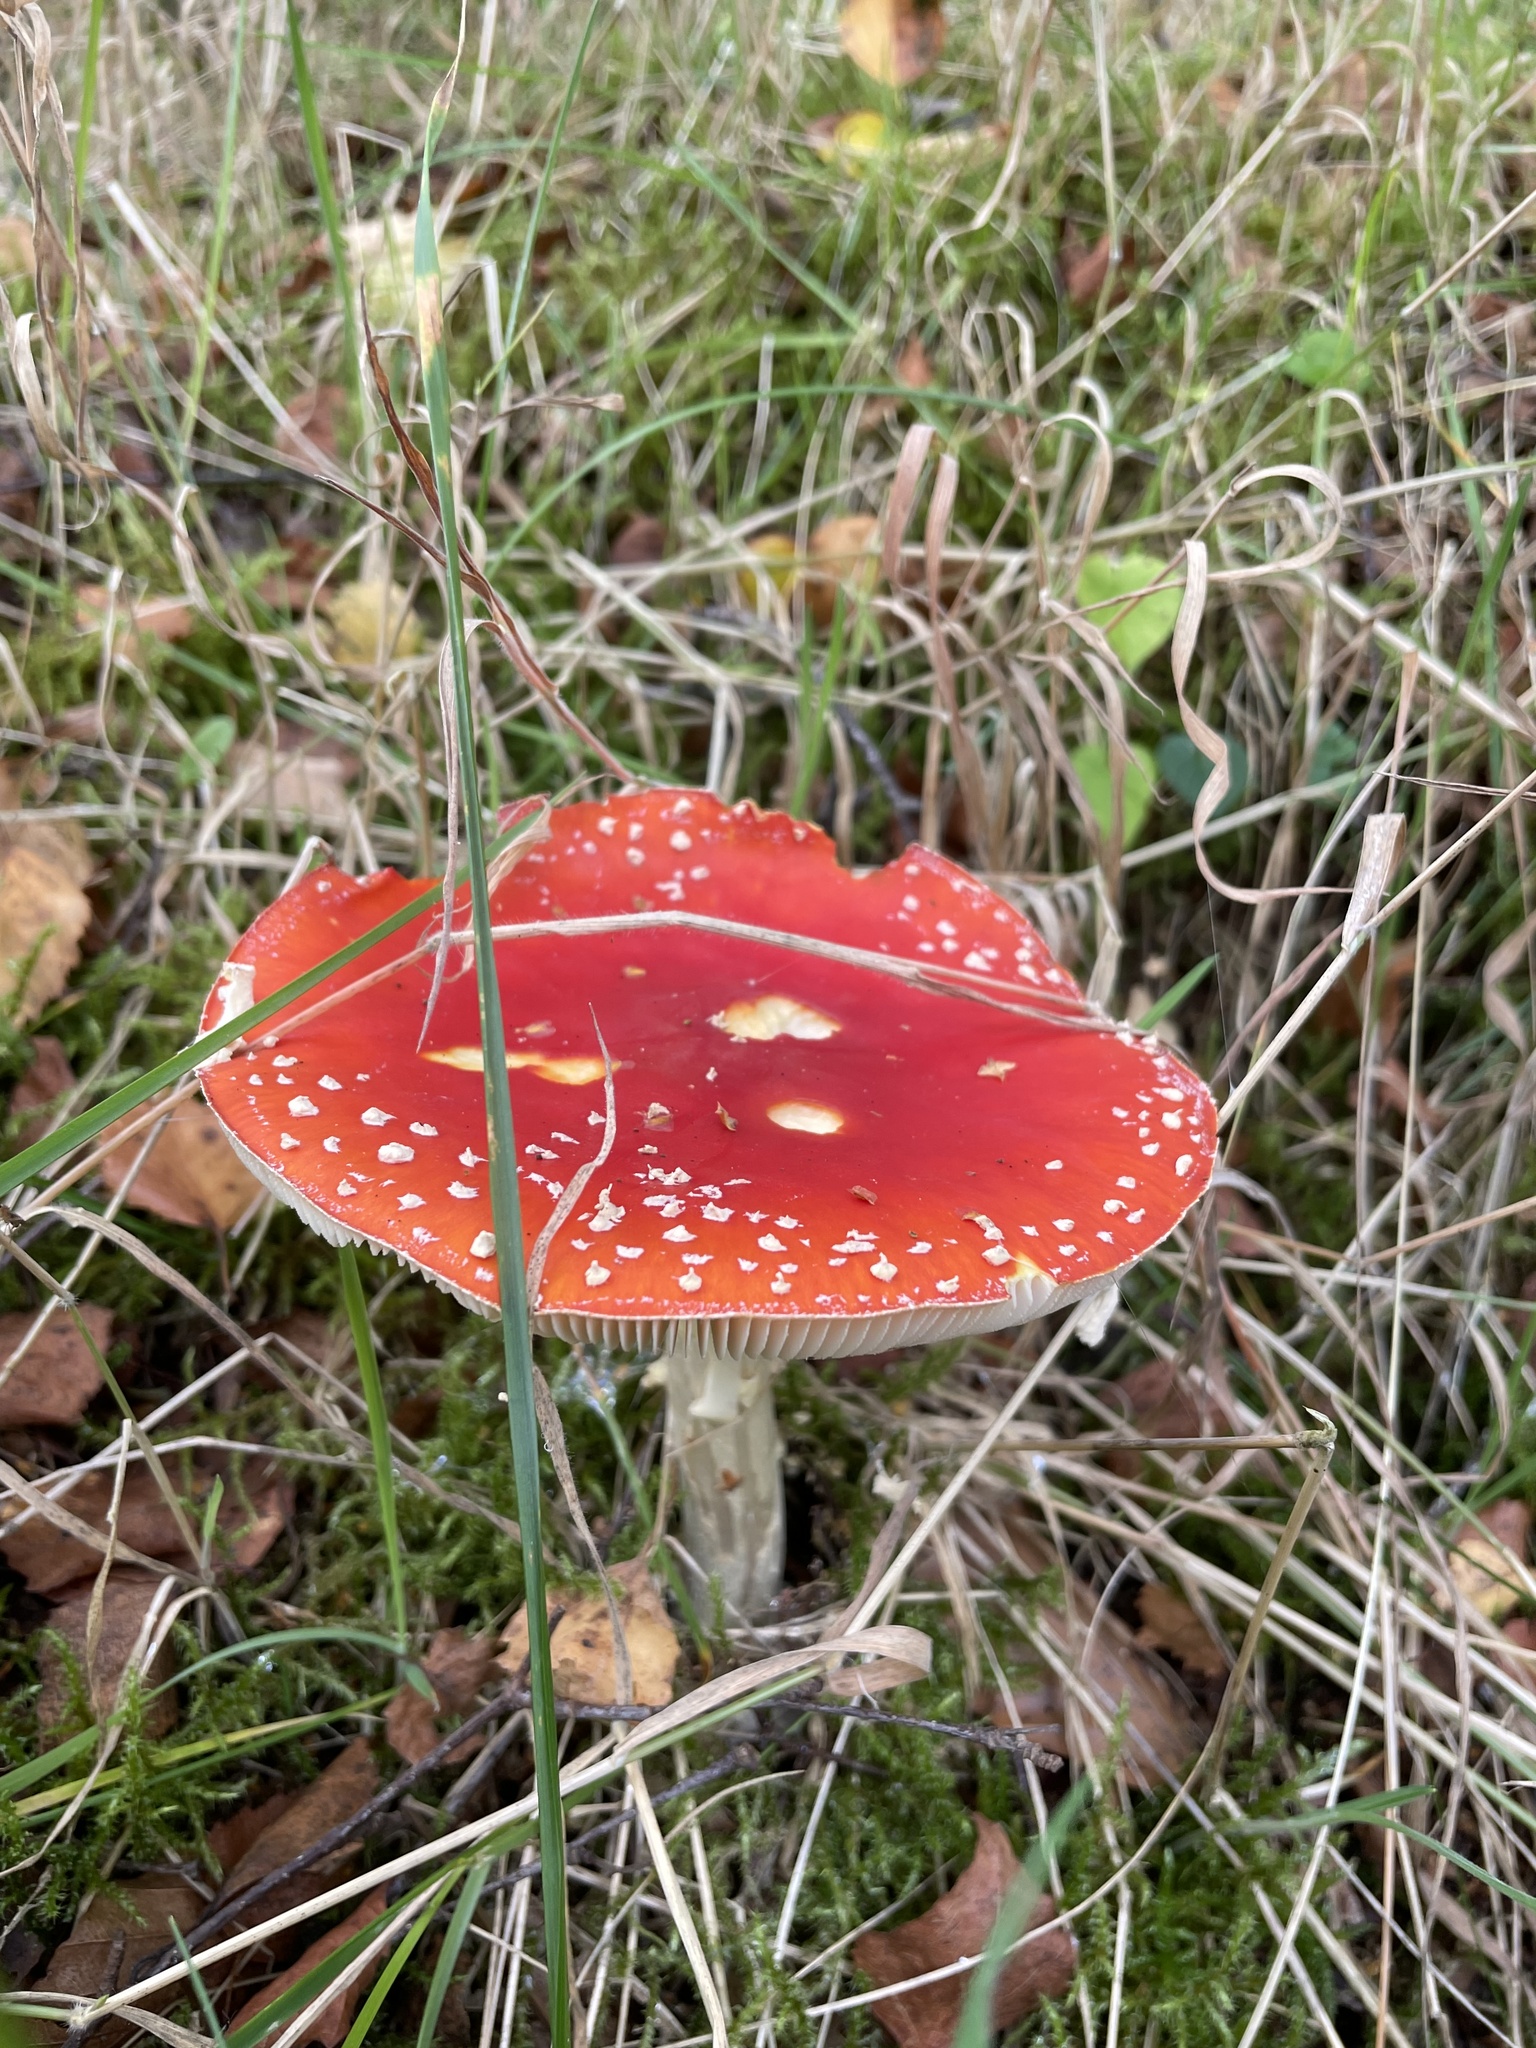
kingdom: Fungi
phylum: Basidiomycota
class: Agaricomycetes
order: Agaricales
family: Amanitaceae
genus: Amanita
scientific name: Amanita muscaria
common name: Fly agaric
